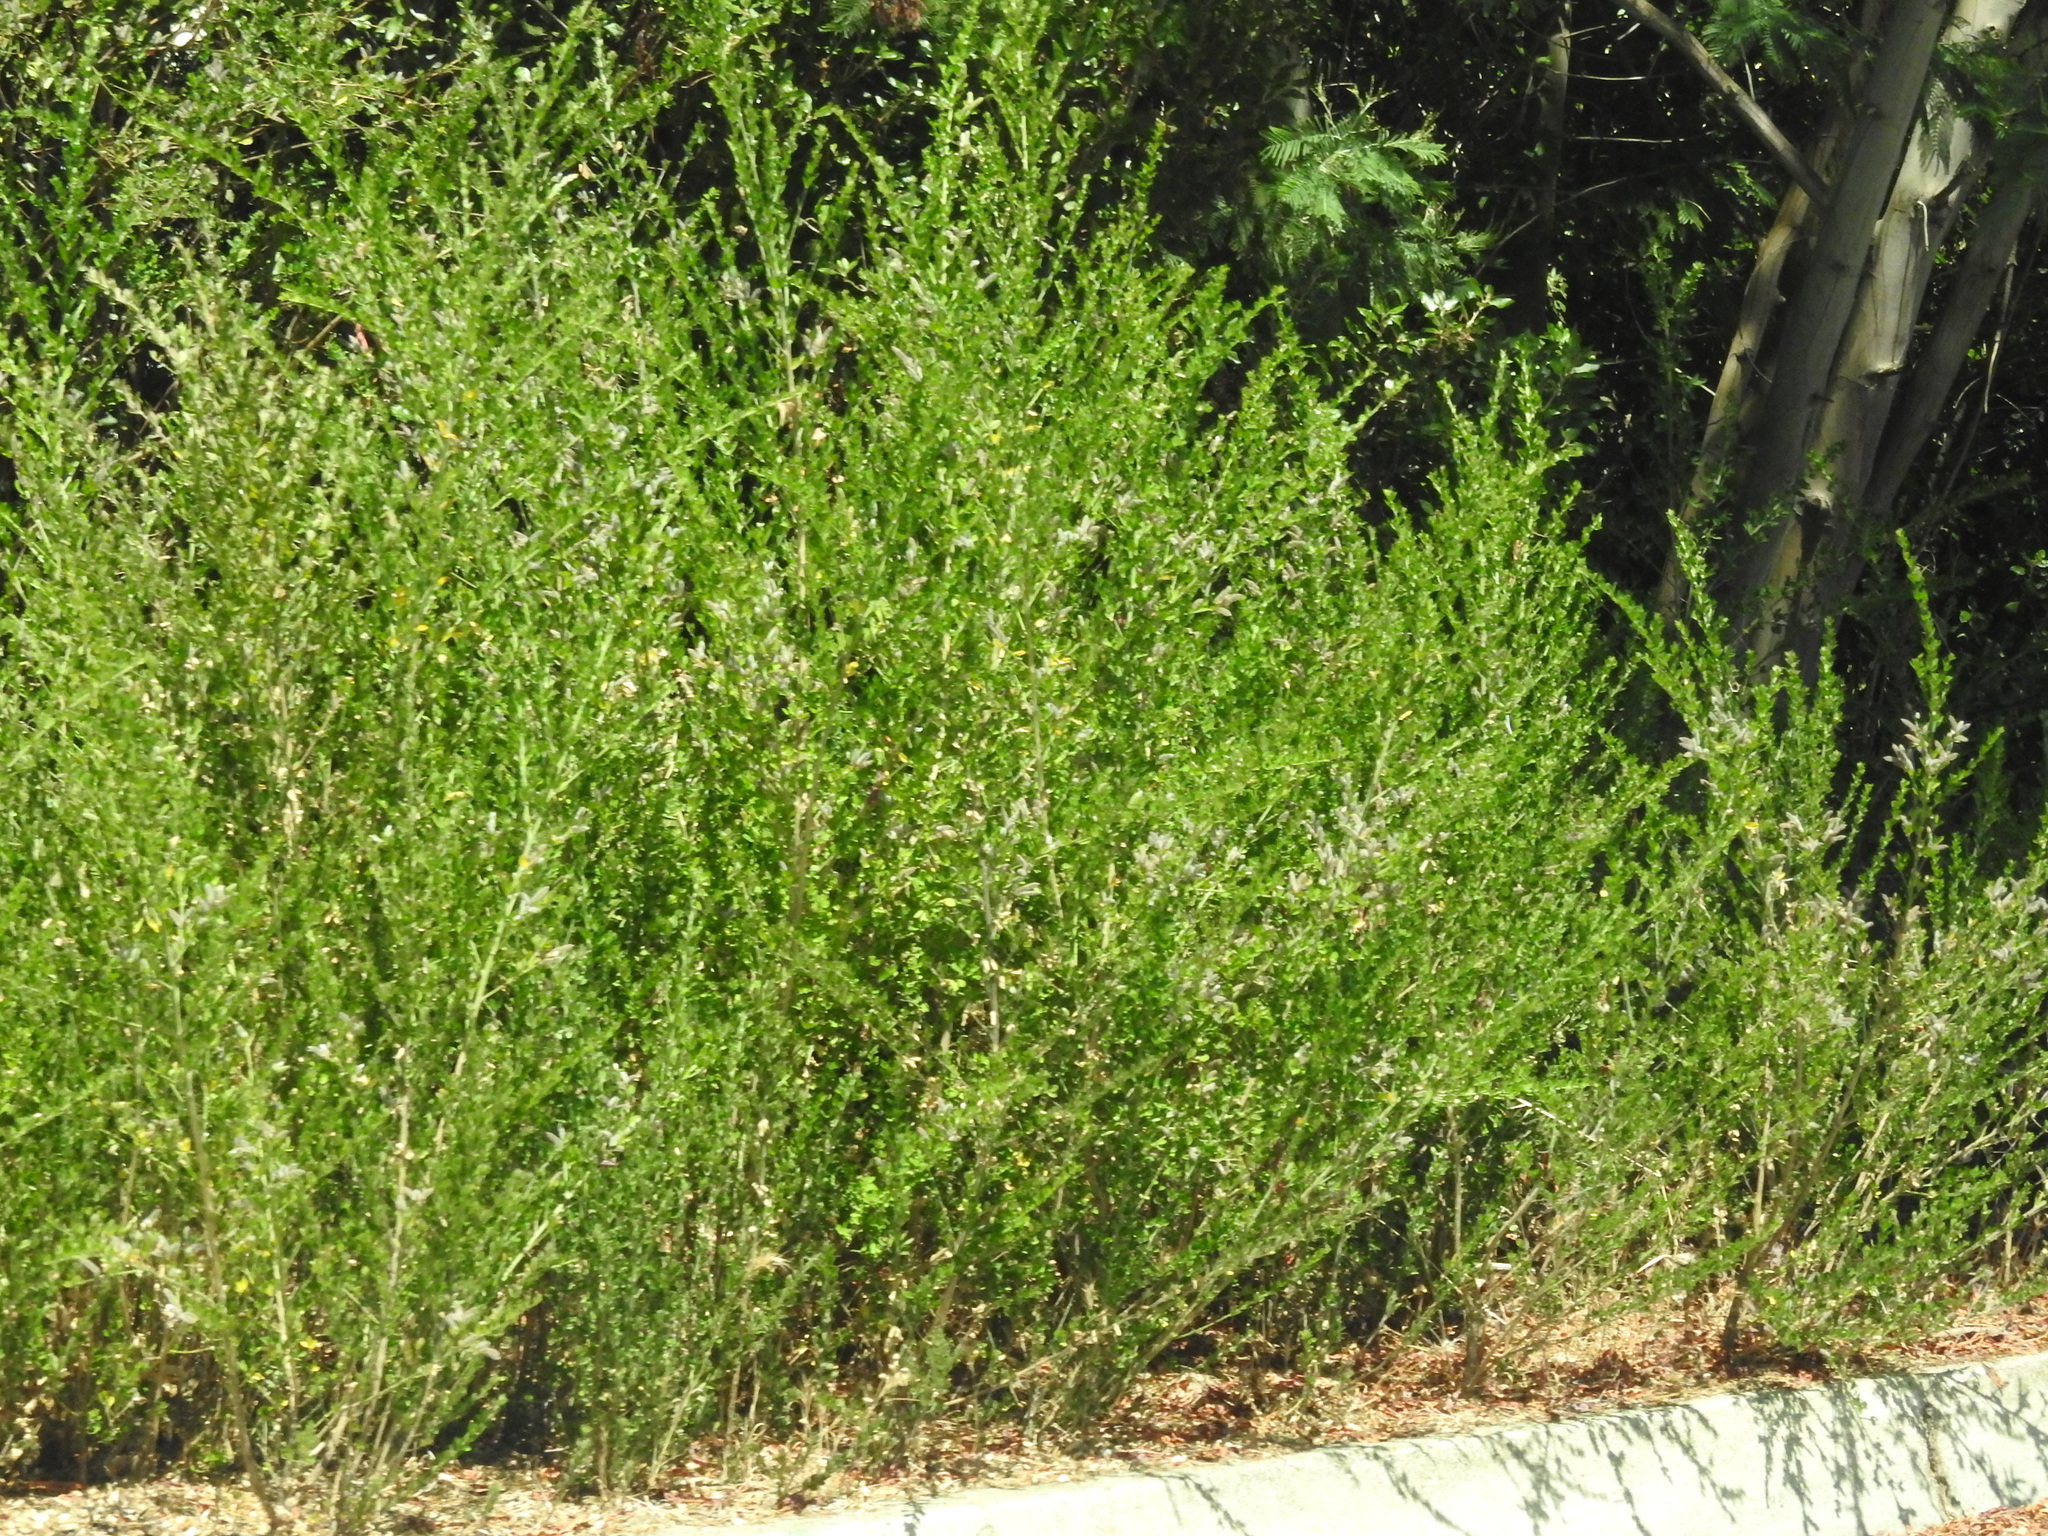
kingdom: Plantae
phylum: Tracheophyta
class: Magnoliopsida
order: Fabales
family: Fabaceae
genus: Genista
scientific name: Genista monspessulana
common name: Montpellier broom
